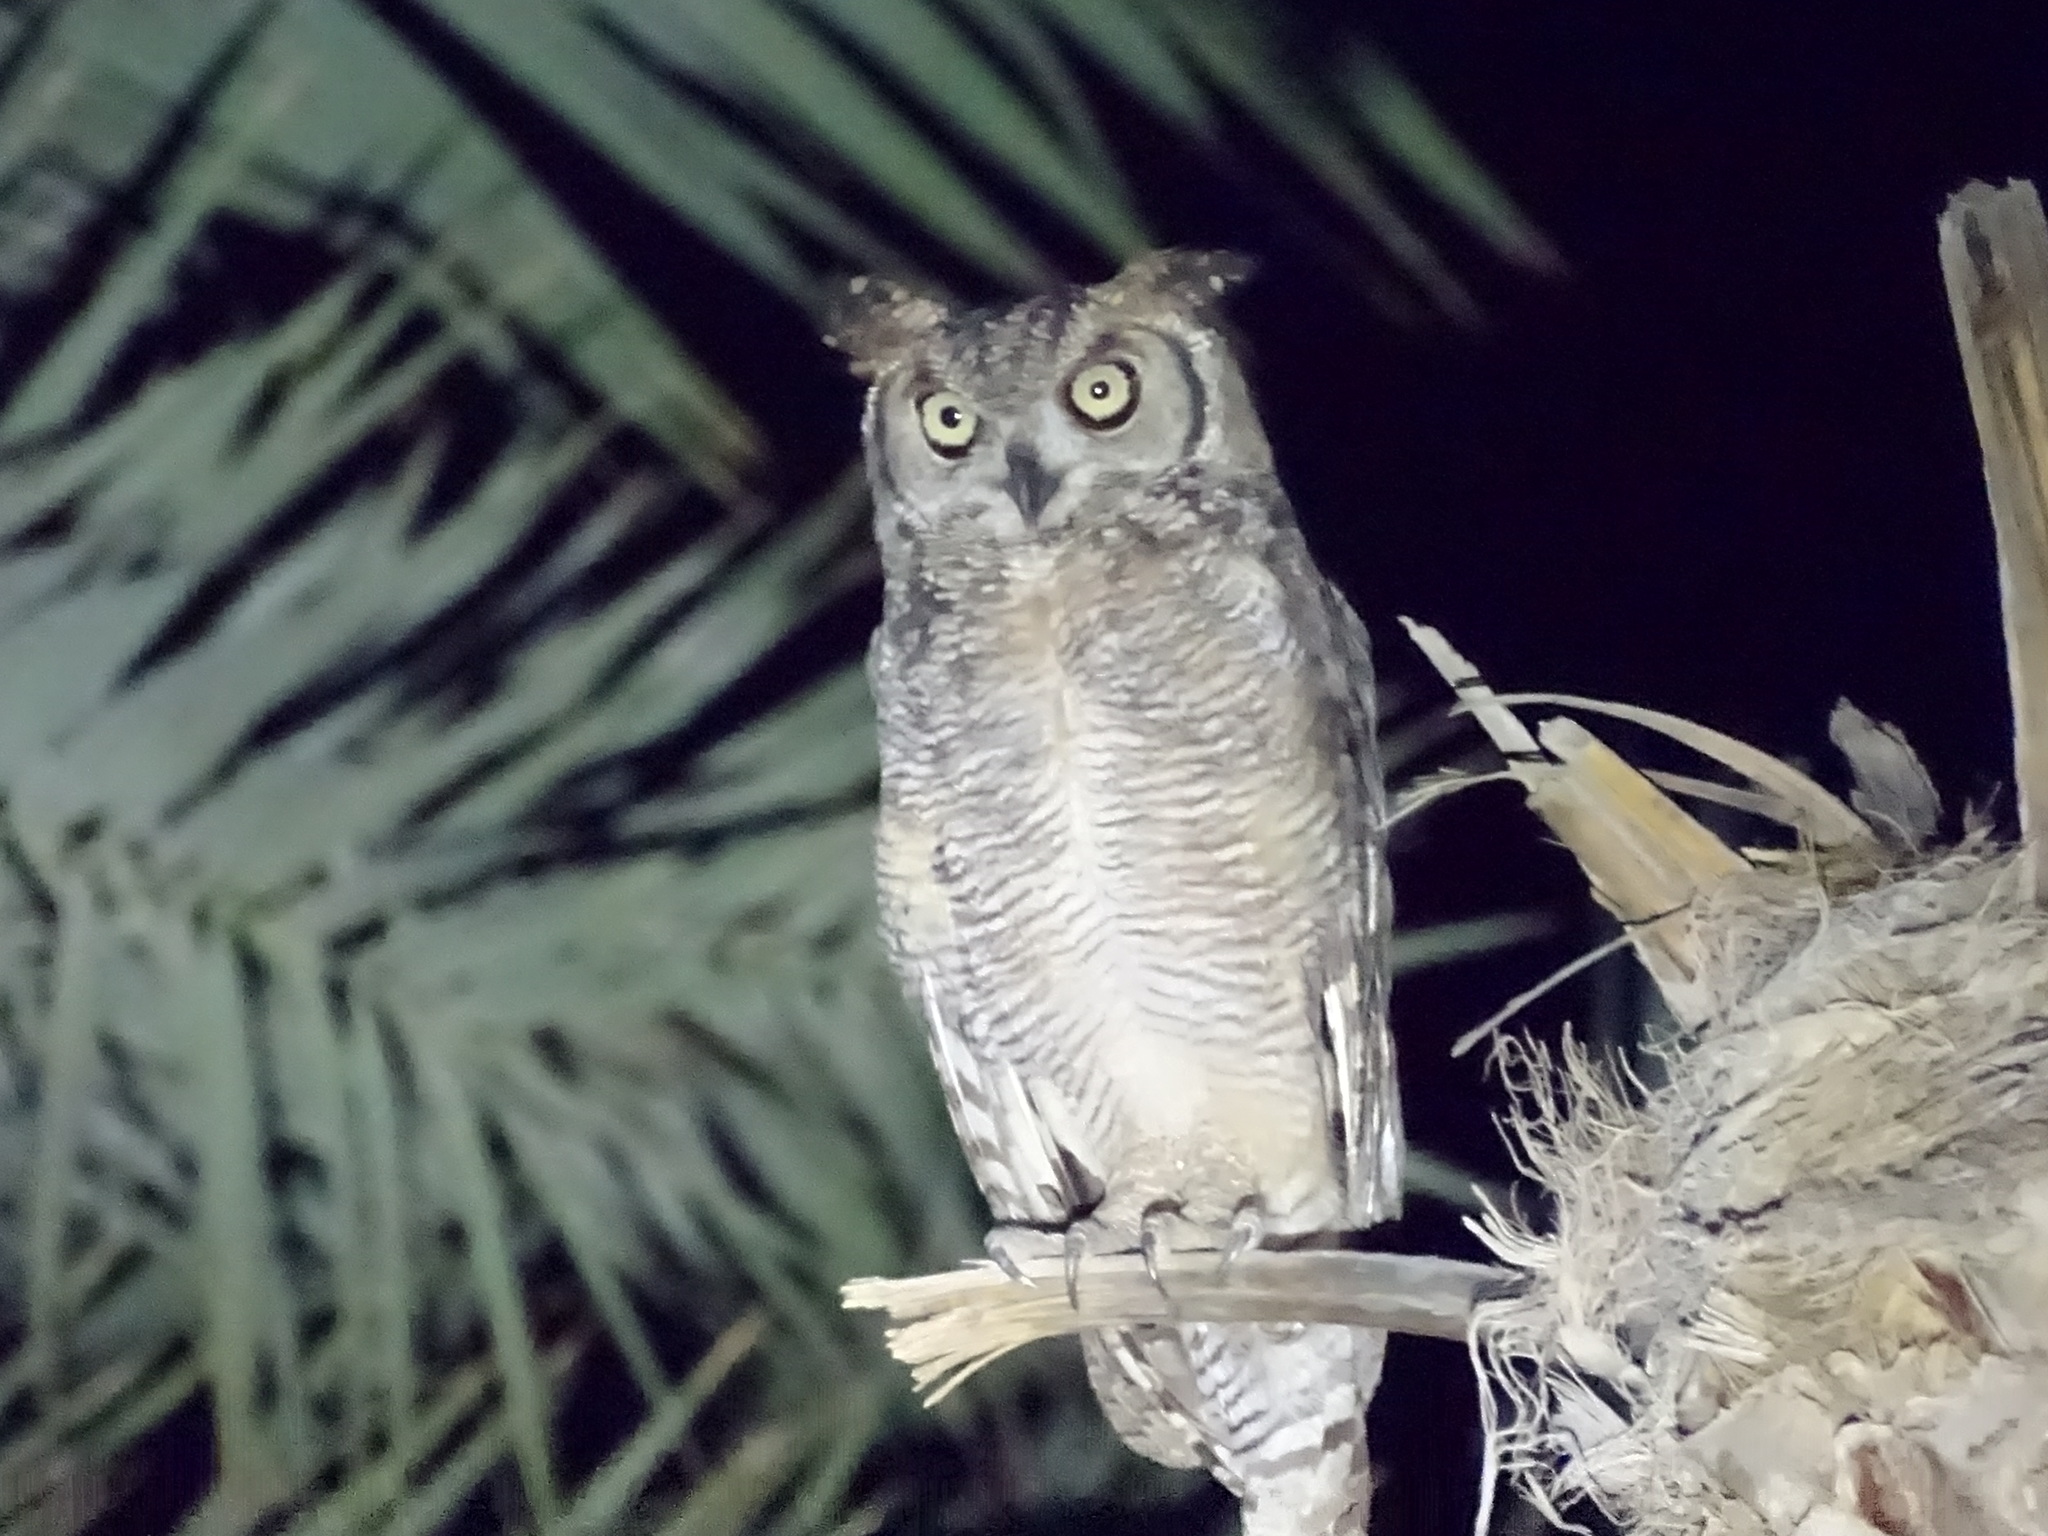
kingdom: Animalia
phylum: Chordata
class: Aves
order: Strigiformes
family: Strigidae
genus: Bubo
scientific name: Bubo africanus
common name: Spotted eagle-owl
